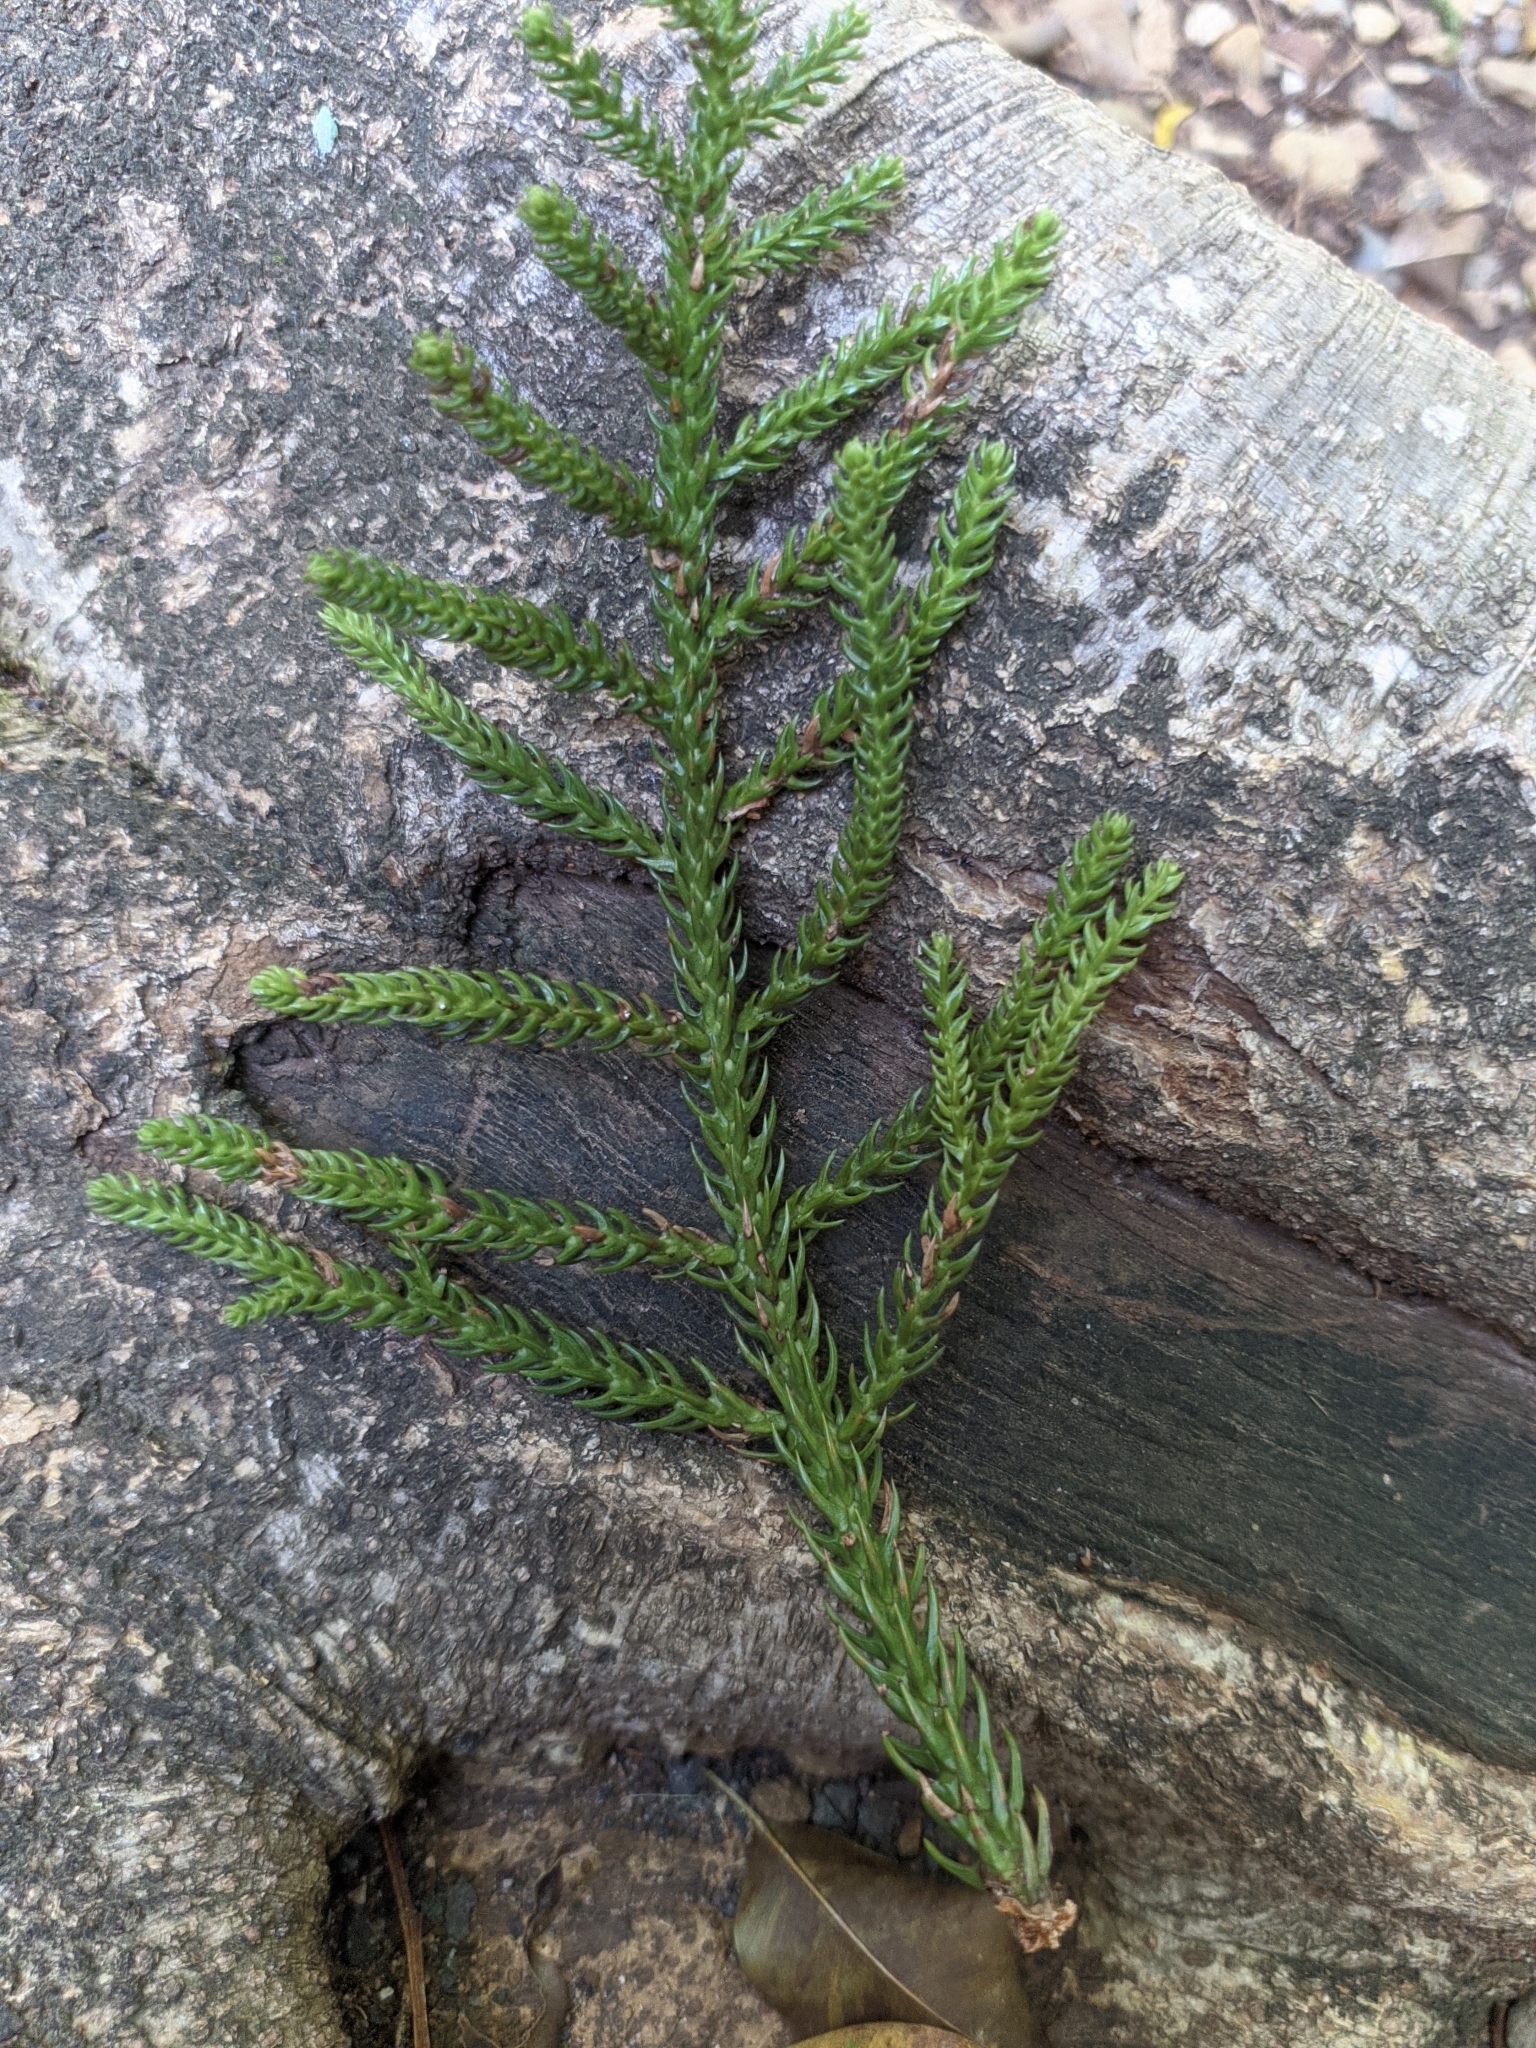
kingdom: Plantae
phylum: Tracheophyta
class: Pinopsida
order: Pinales
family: Araucariaceae
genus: Araucaria
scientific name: Araucaria cunninghamii
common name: Colonial pine
